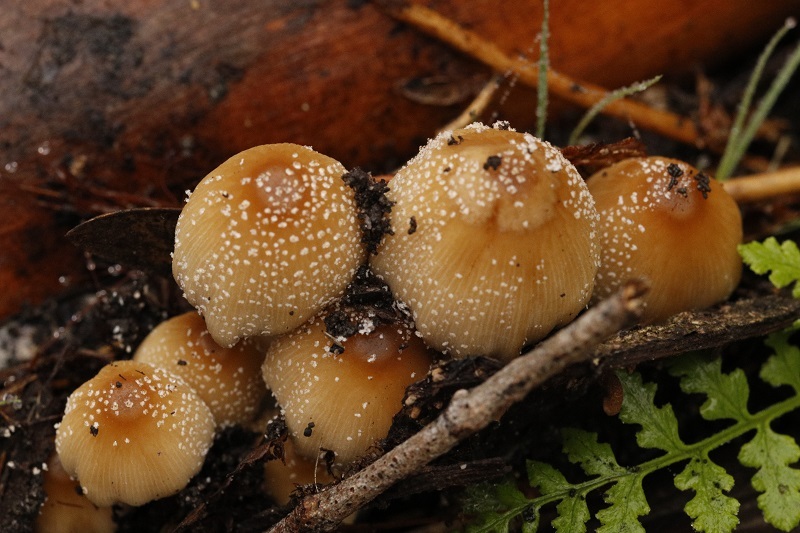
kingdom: Fungi
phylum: Basidiomycota
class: Agaricomycetes
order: Agaricales
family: Psathyrellaceae
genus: Coprinellus
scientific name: Coprinellus micaceus
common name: Glistening ink-cap
